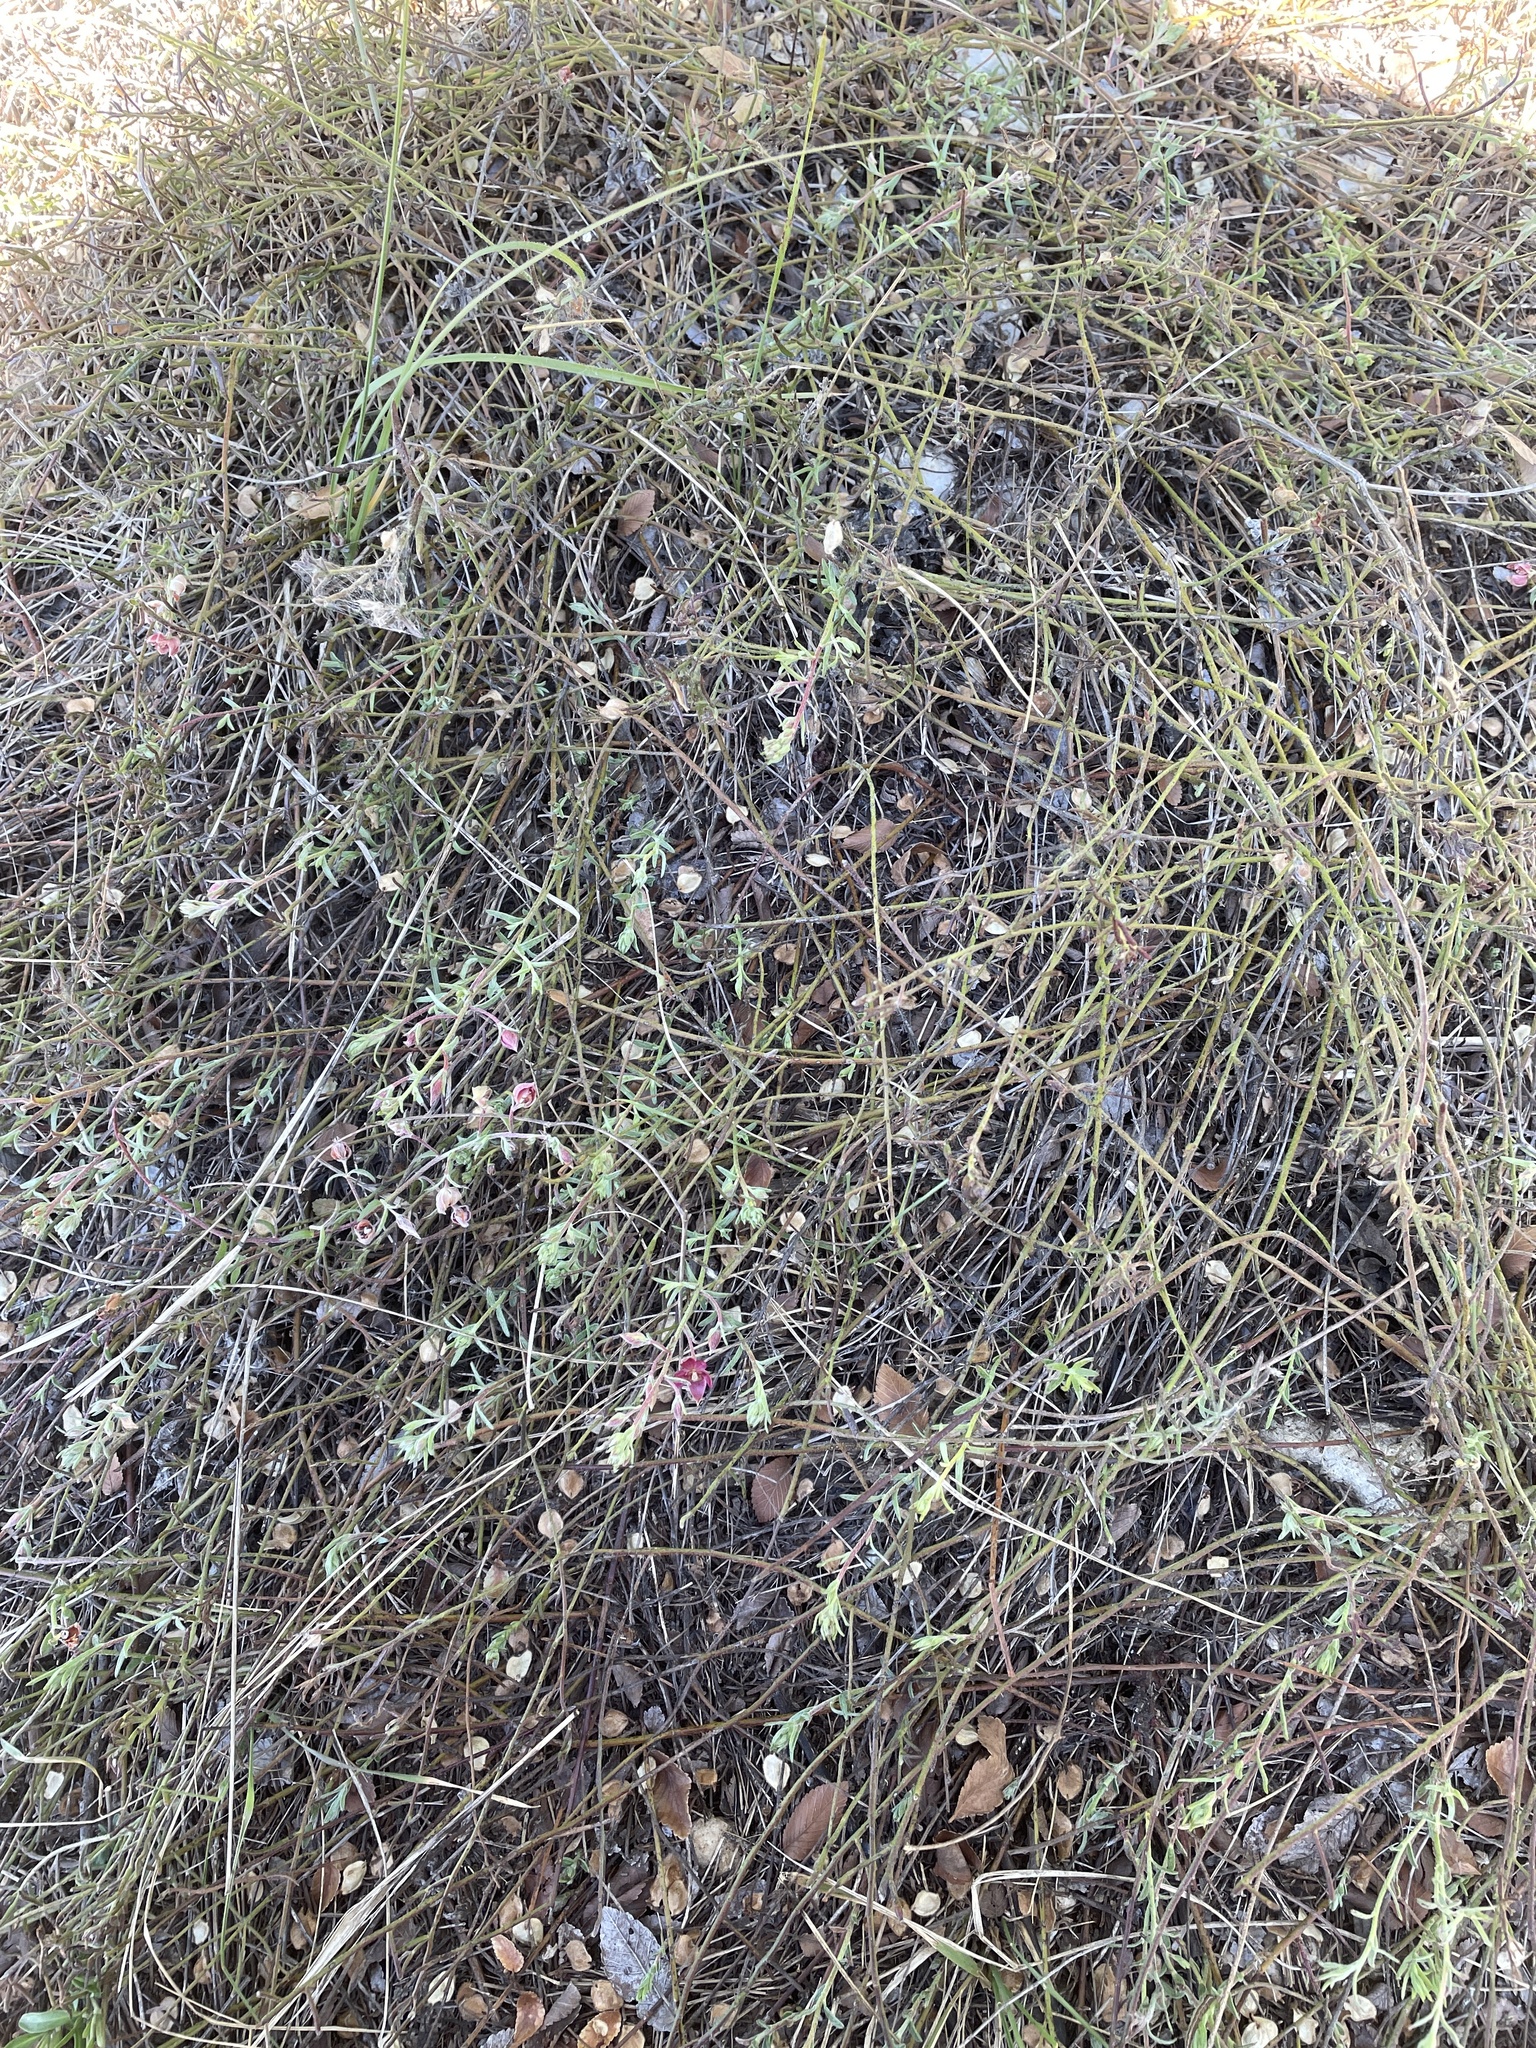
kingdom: Plantae
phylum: Tracheophyta
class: Magnoliopsida
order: Zygophyllales
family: Krameriaceae
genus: Krameria
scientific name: Krameria lanceolata
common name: Ratany
